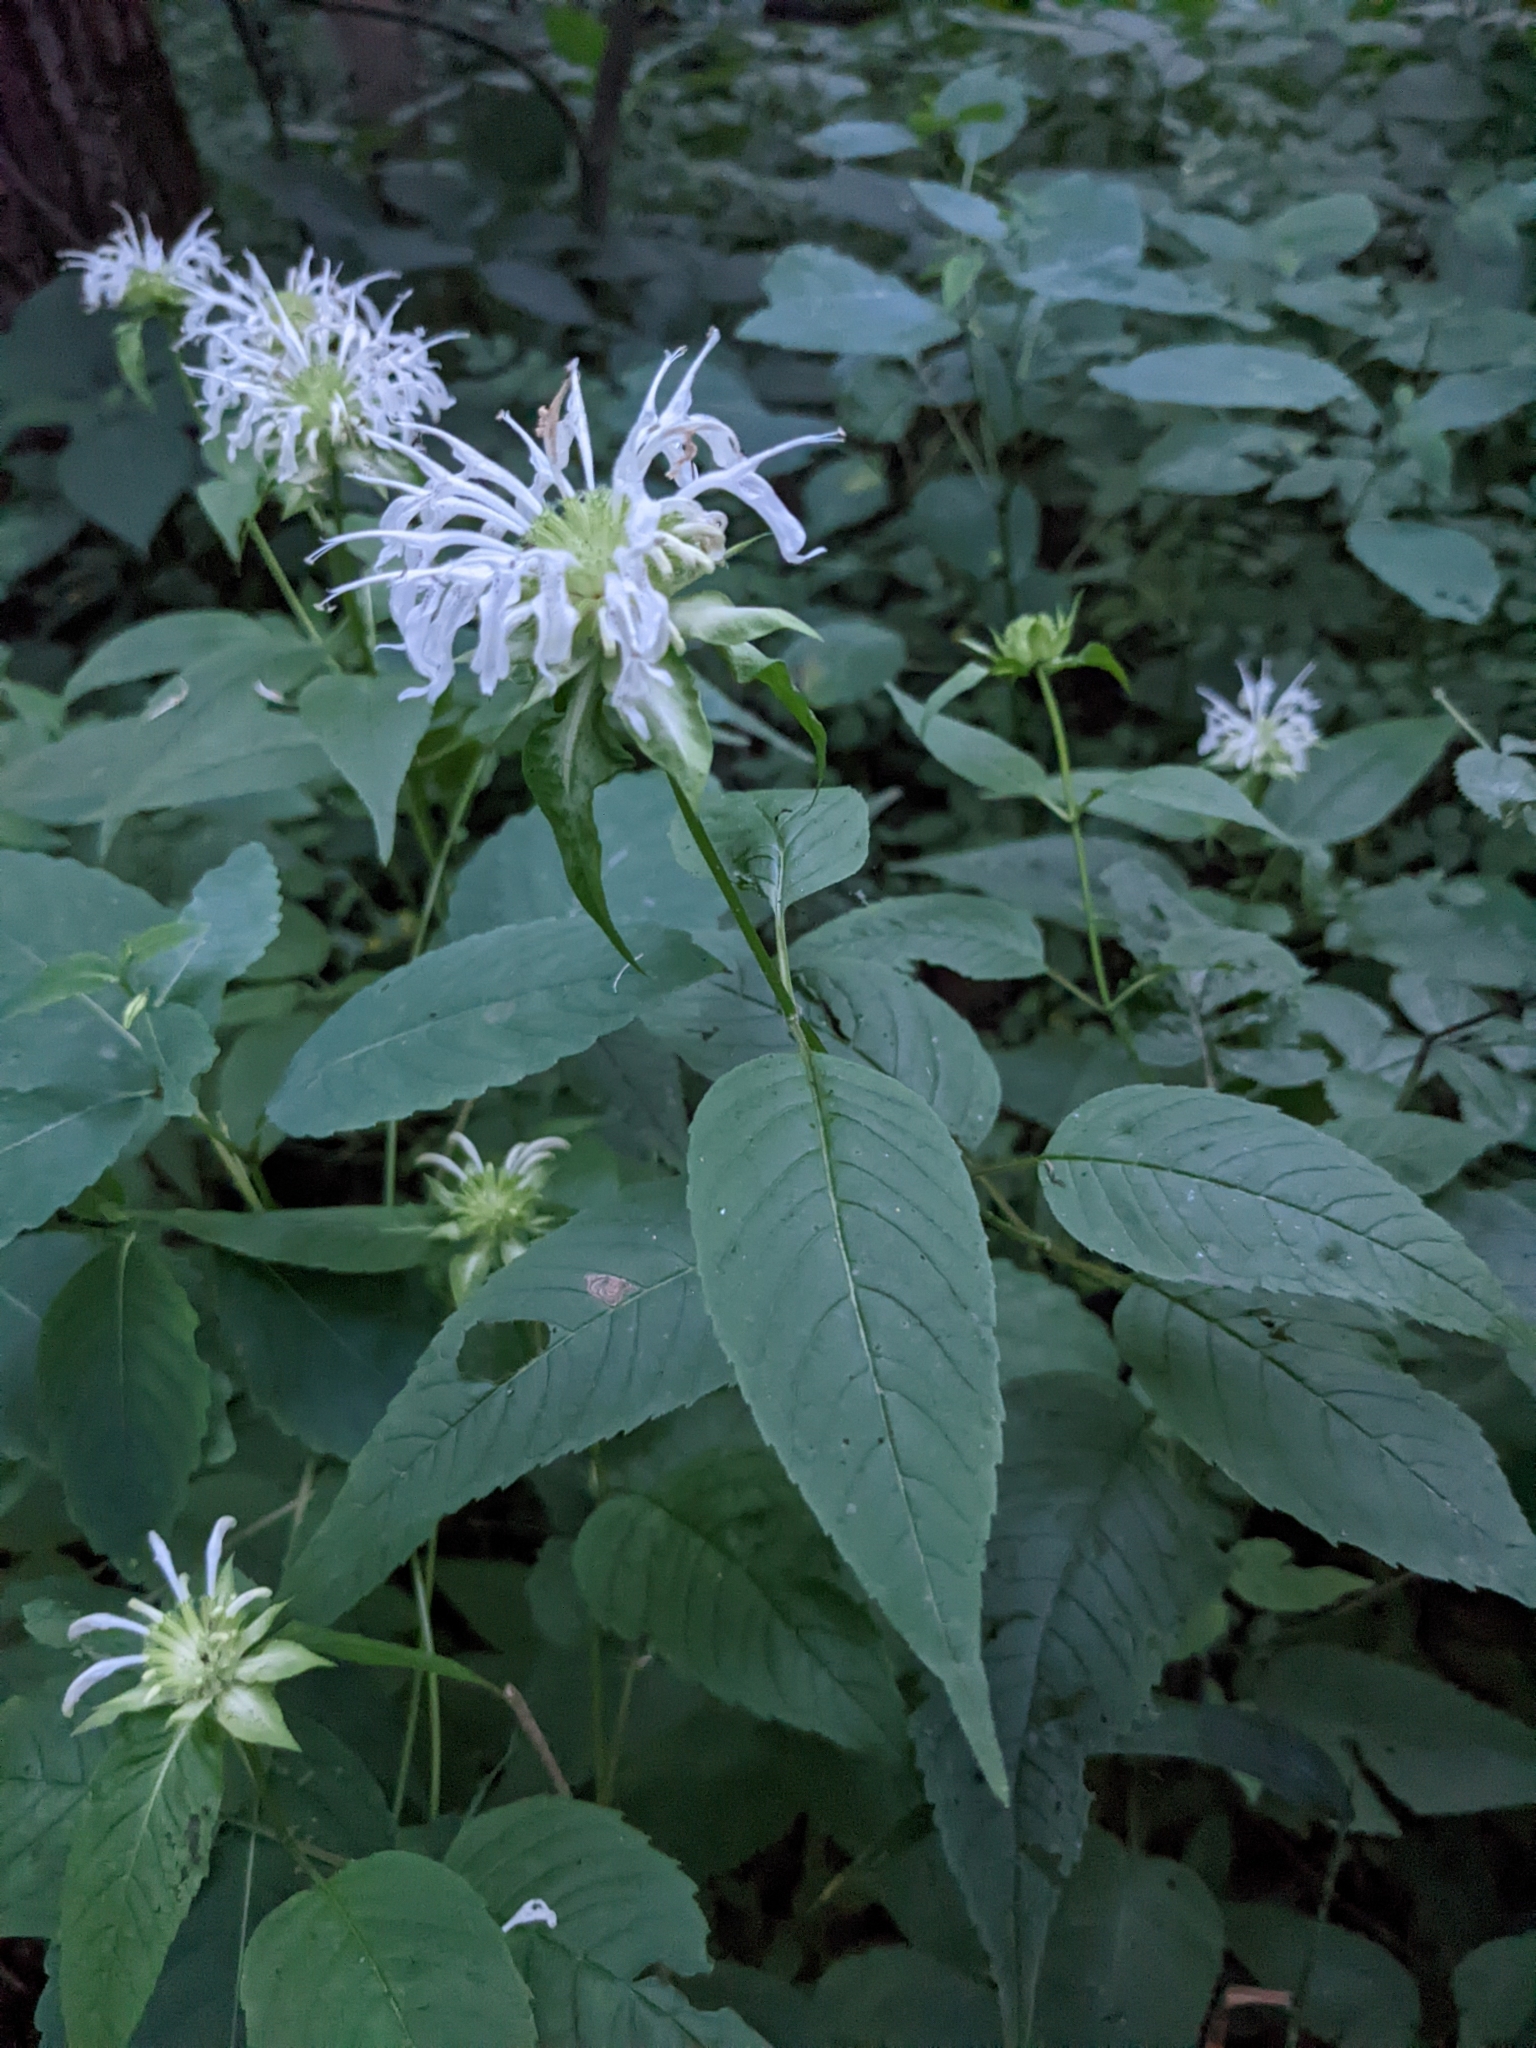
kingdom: Plantae
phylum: Tracheophyta
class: Magnoliopsida
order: Lamiales
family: Lamiaceae
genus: Monarda
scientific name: Monarda clinopodia
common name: Basil beebalm
